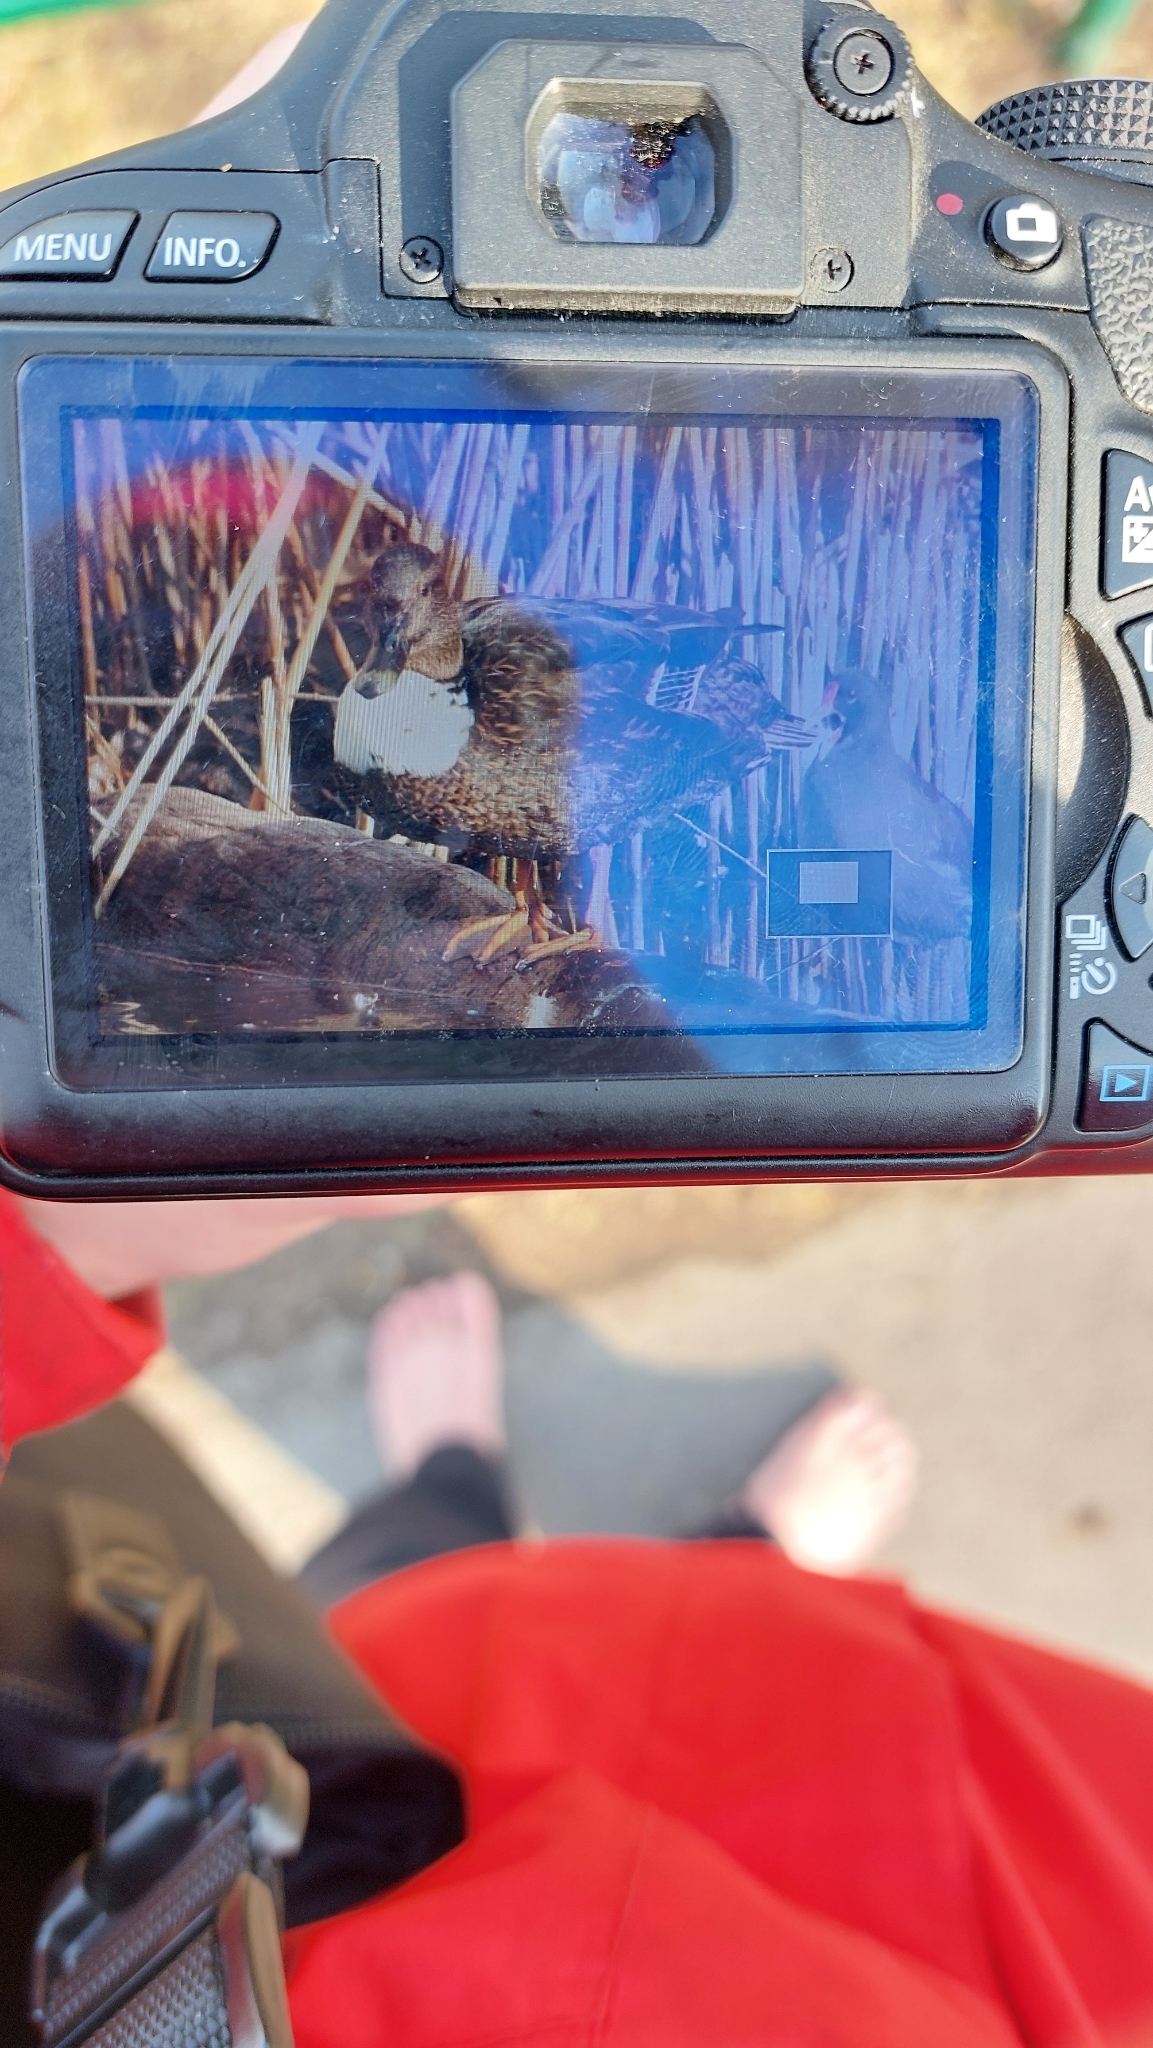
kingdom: Animalia
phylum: Chordata
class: Aves
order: Anseriformes
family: Anatidae
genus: Anas
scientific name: Anas platyrhynchos
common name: Mallard
